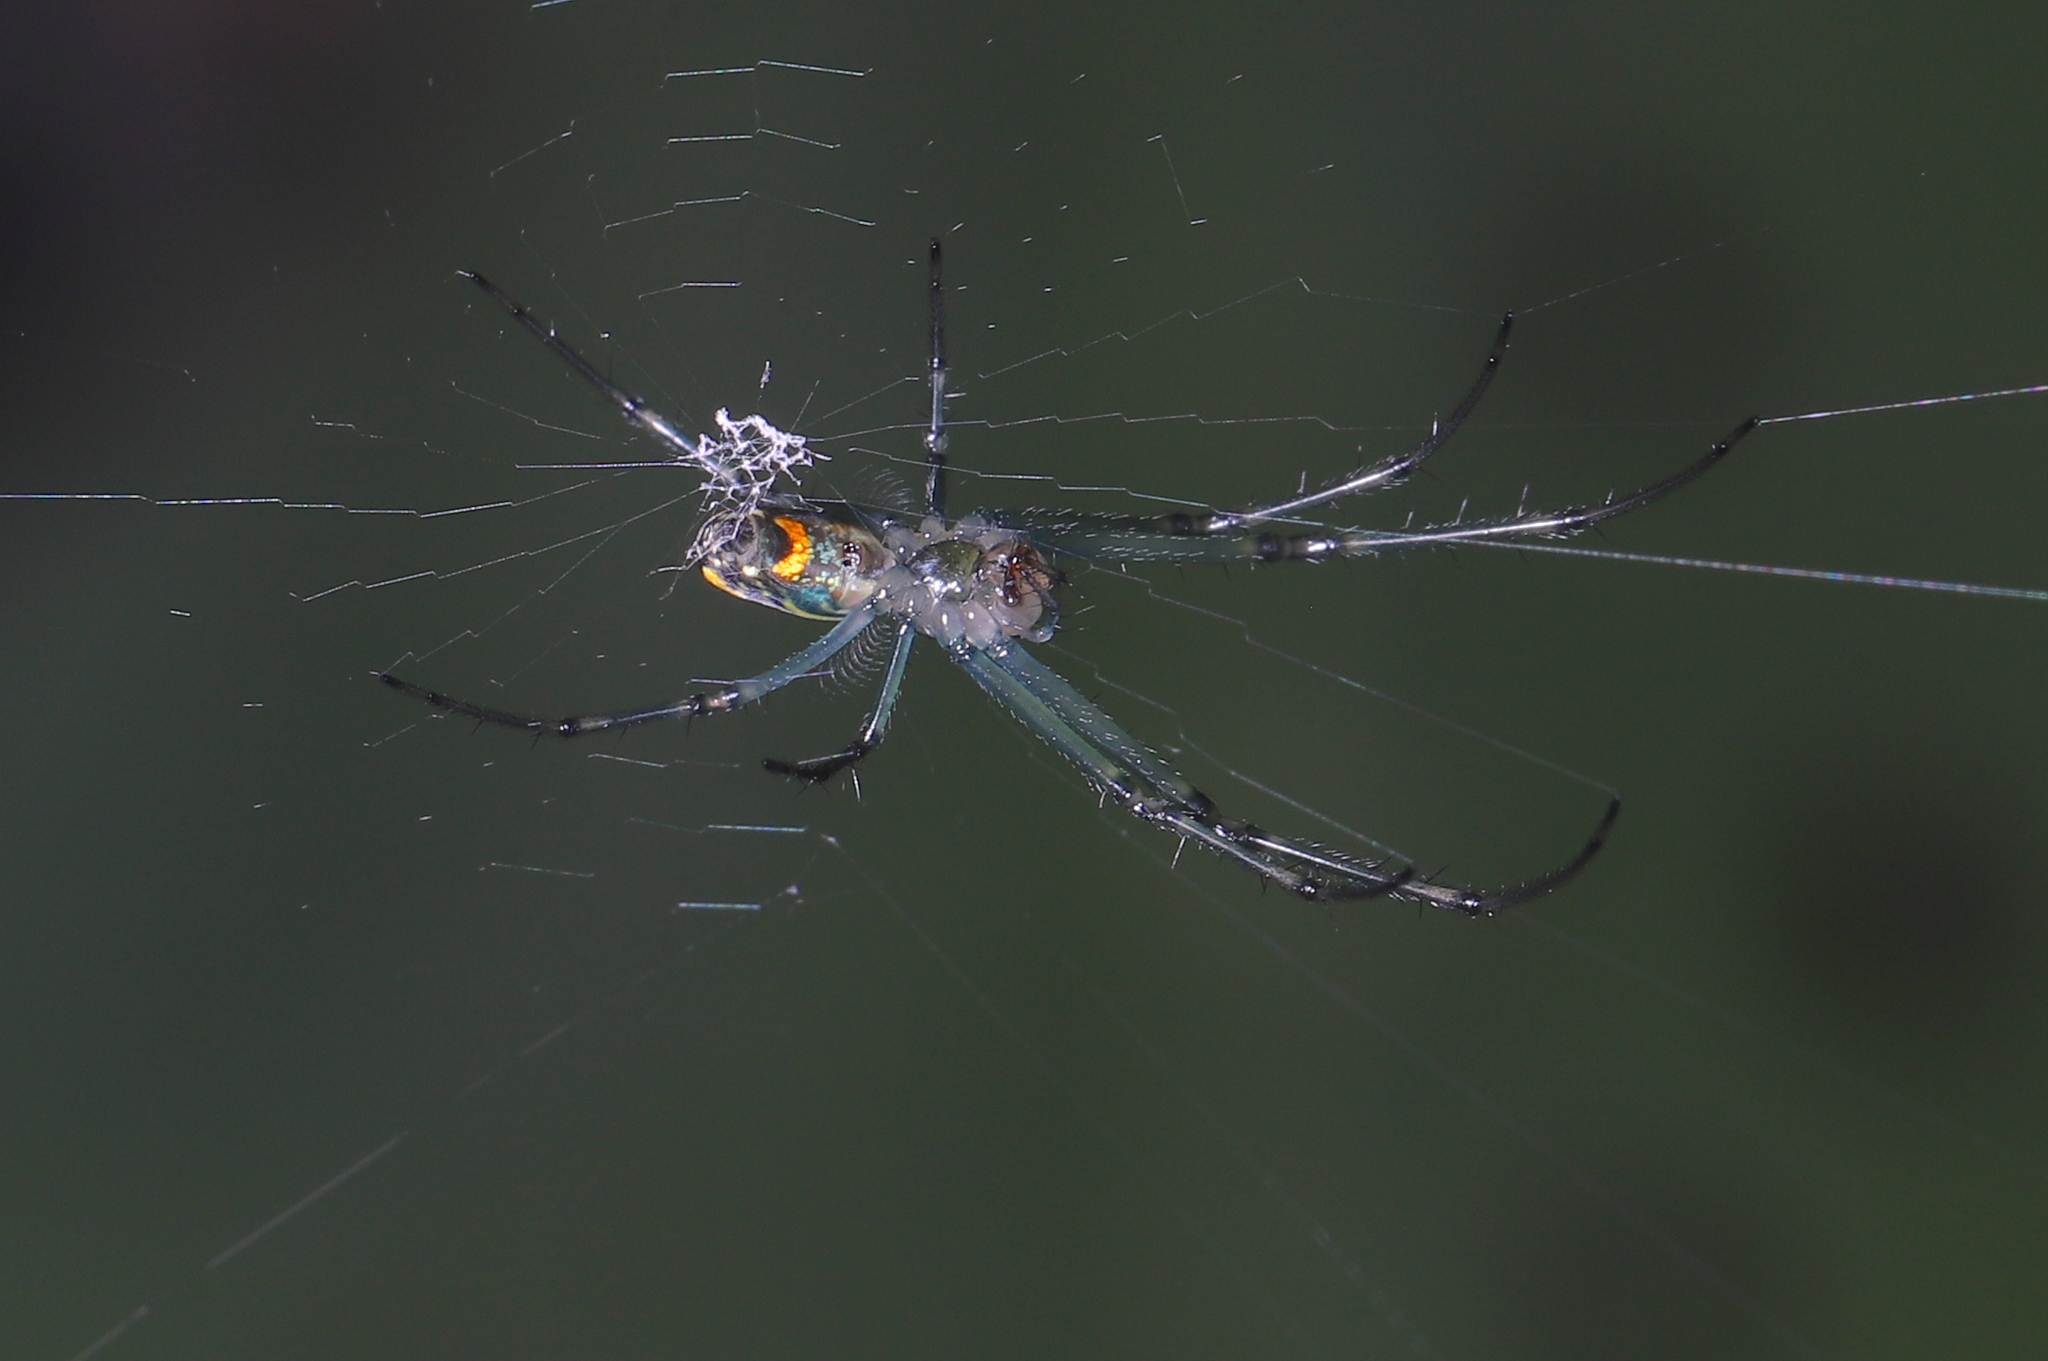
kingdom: Animalia
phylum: Arthropoda
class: Arachnida
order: Araneae
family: Tetragnathidae
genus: Leucauge
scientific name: Leucauge venusta
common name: Longjawed orb weavers
